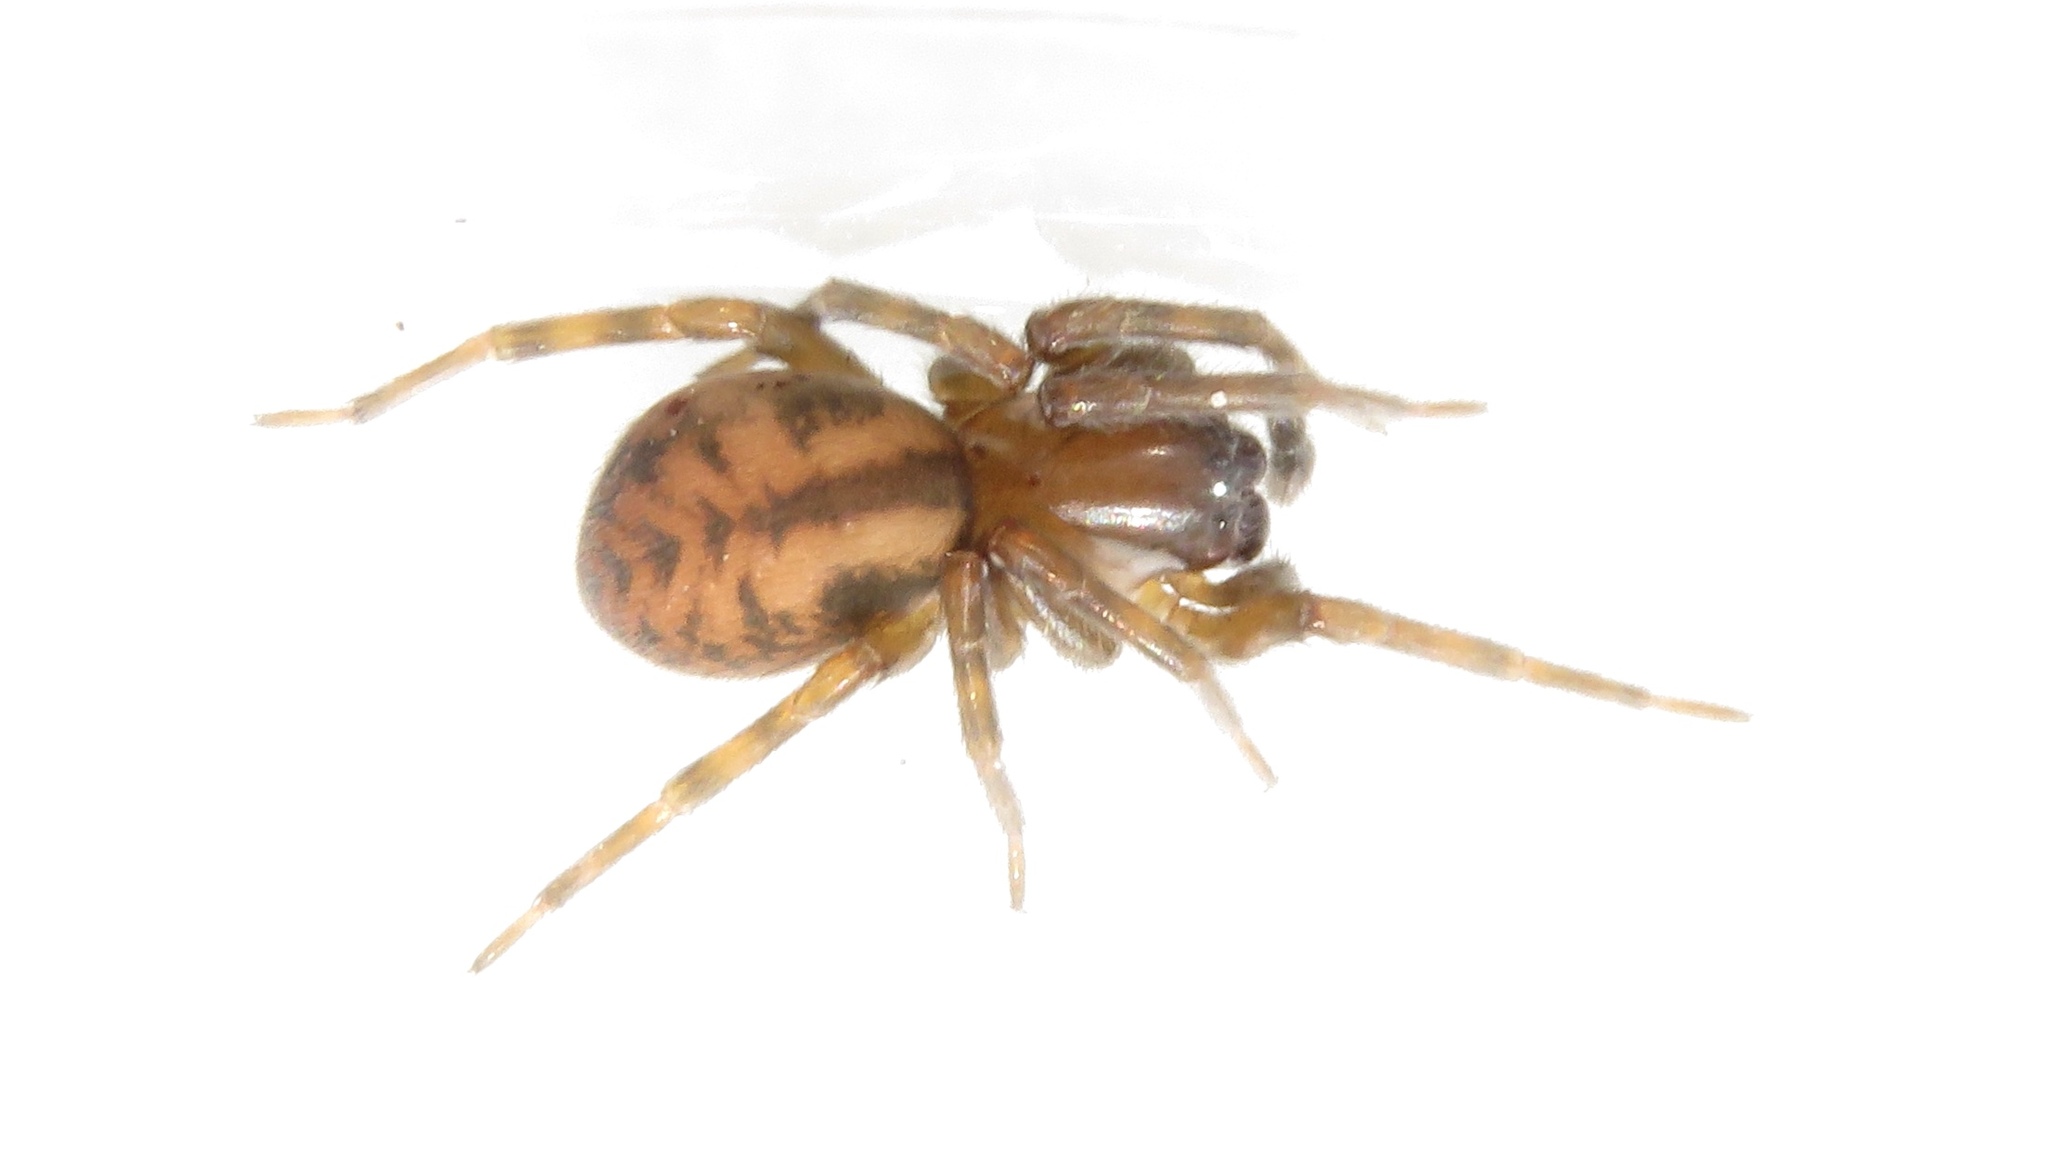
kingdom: Animalia
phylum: Arthropoda
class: Arachnida
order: Araneae
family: Amaurobiidae
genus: Callobius
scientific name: Callobius bennetti
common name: Bennett's laceweaver
